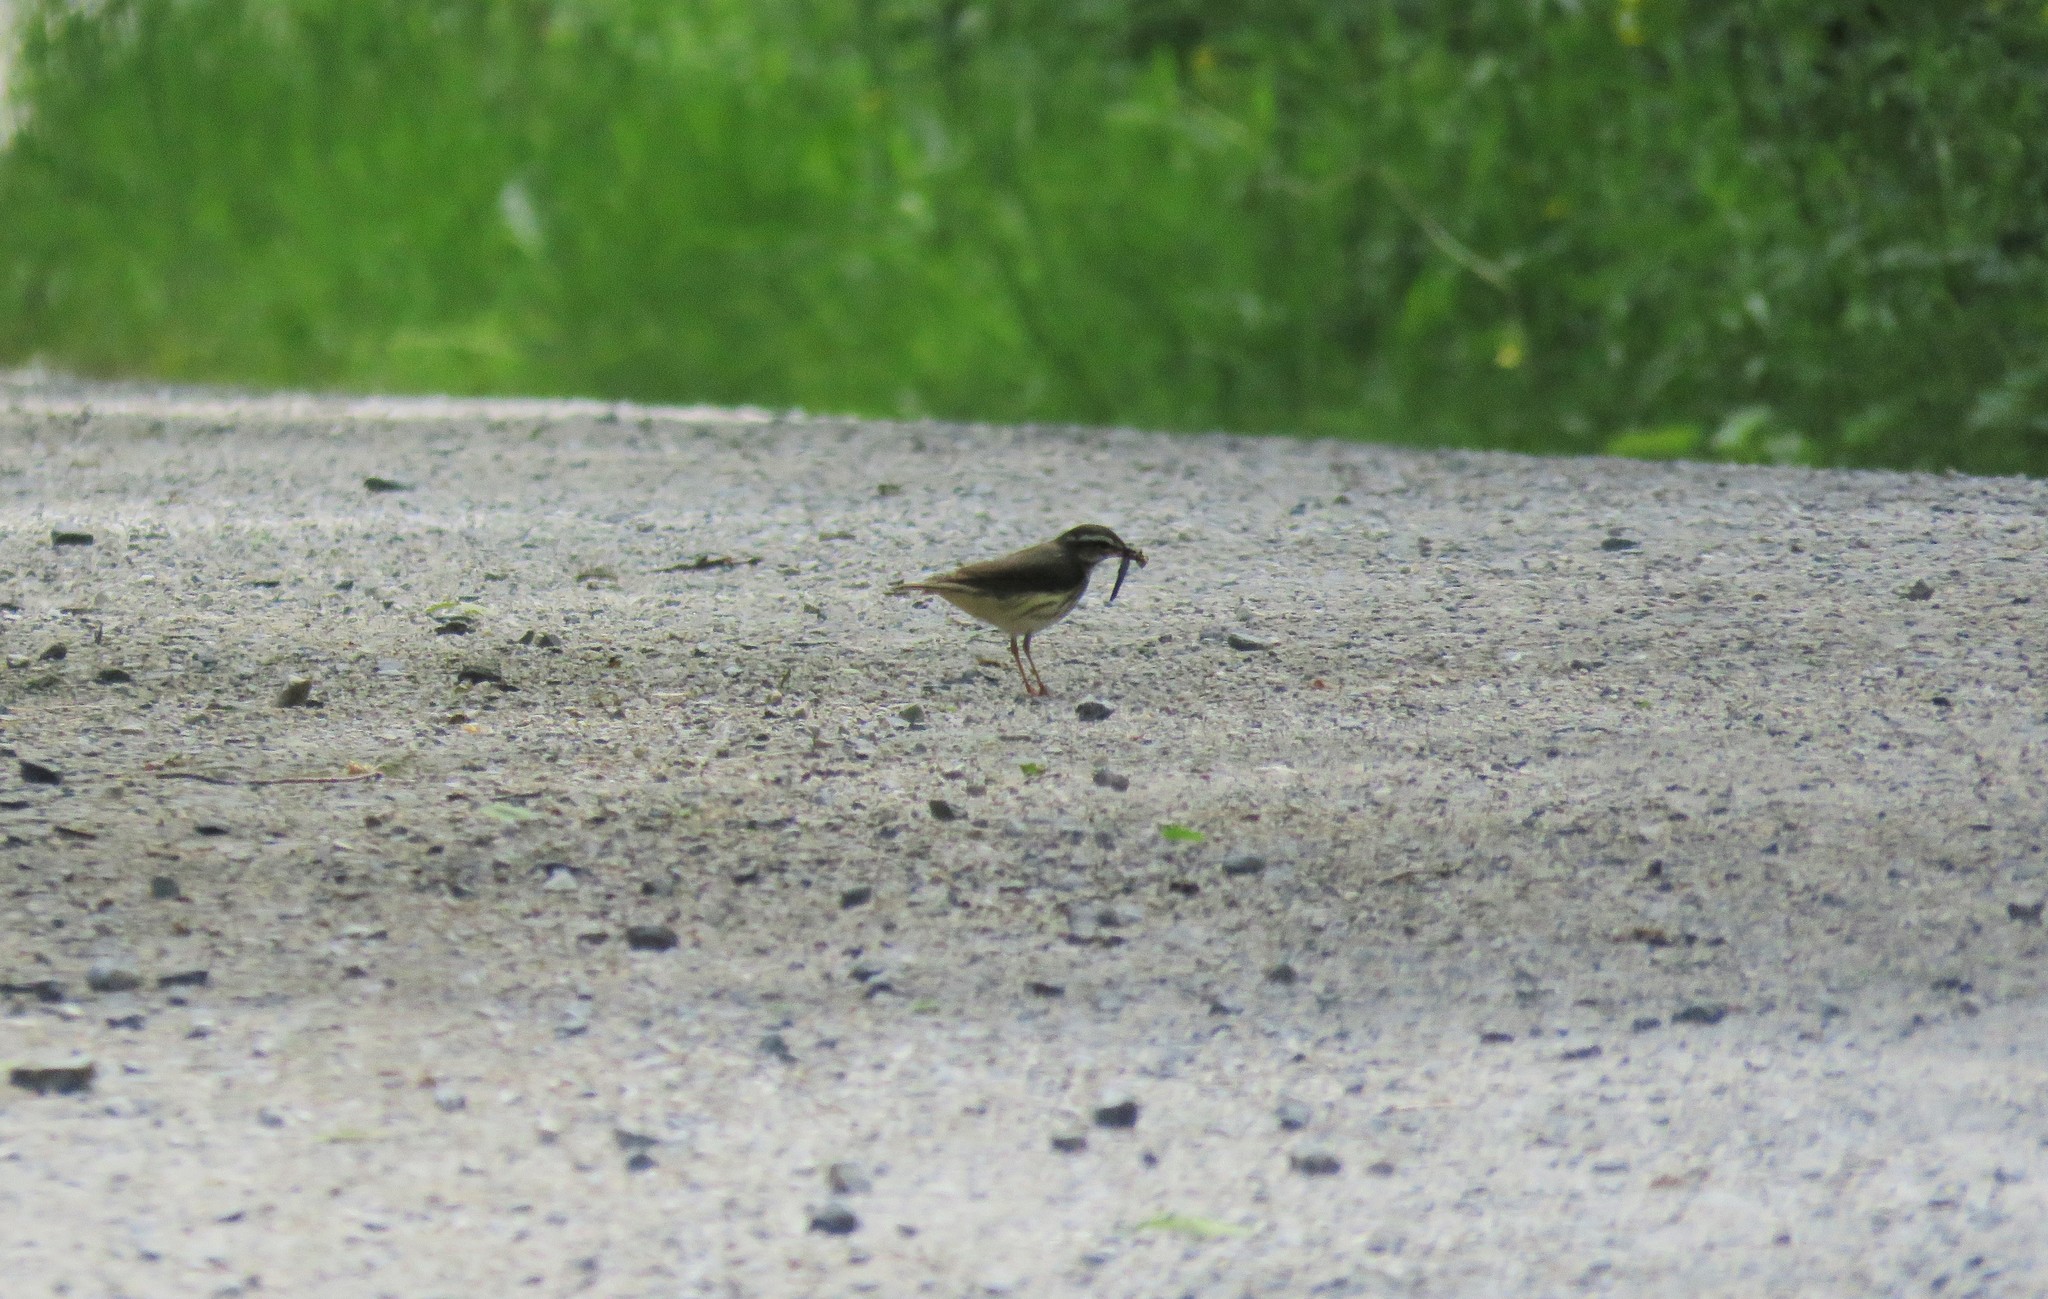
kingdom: Animalia
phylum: Chordata
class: Aves
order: Passeriformes
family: Parulidae
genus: Parkesia
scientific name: Parkesia noveboracensis
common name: Northern waterthrush
